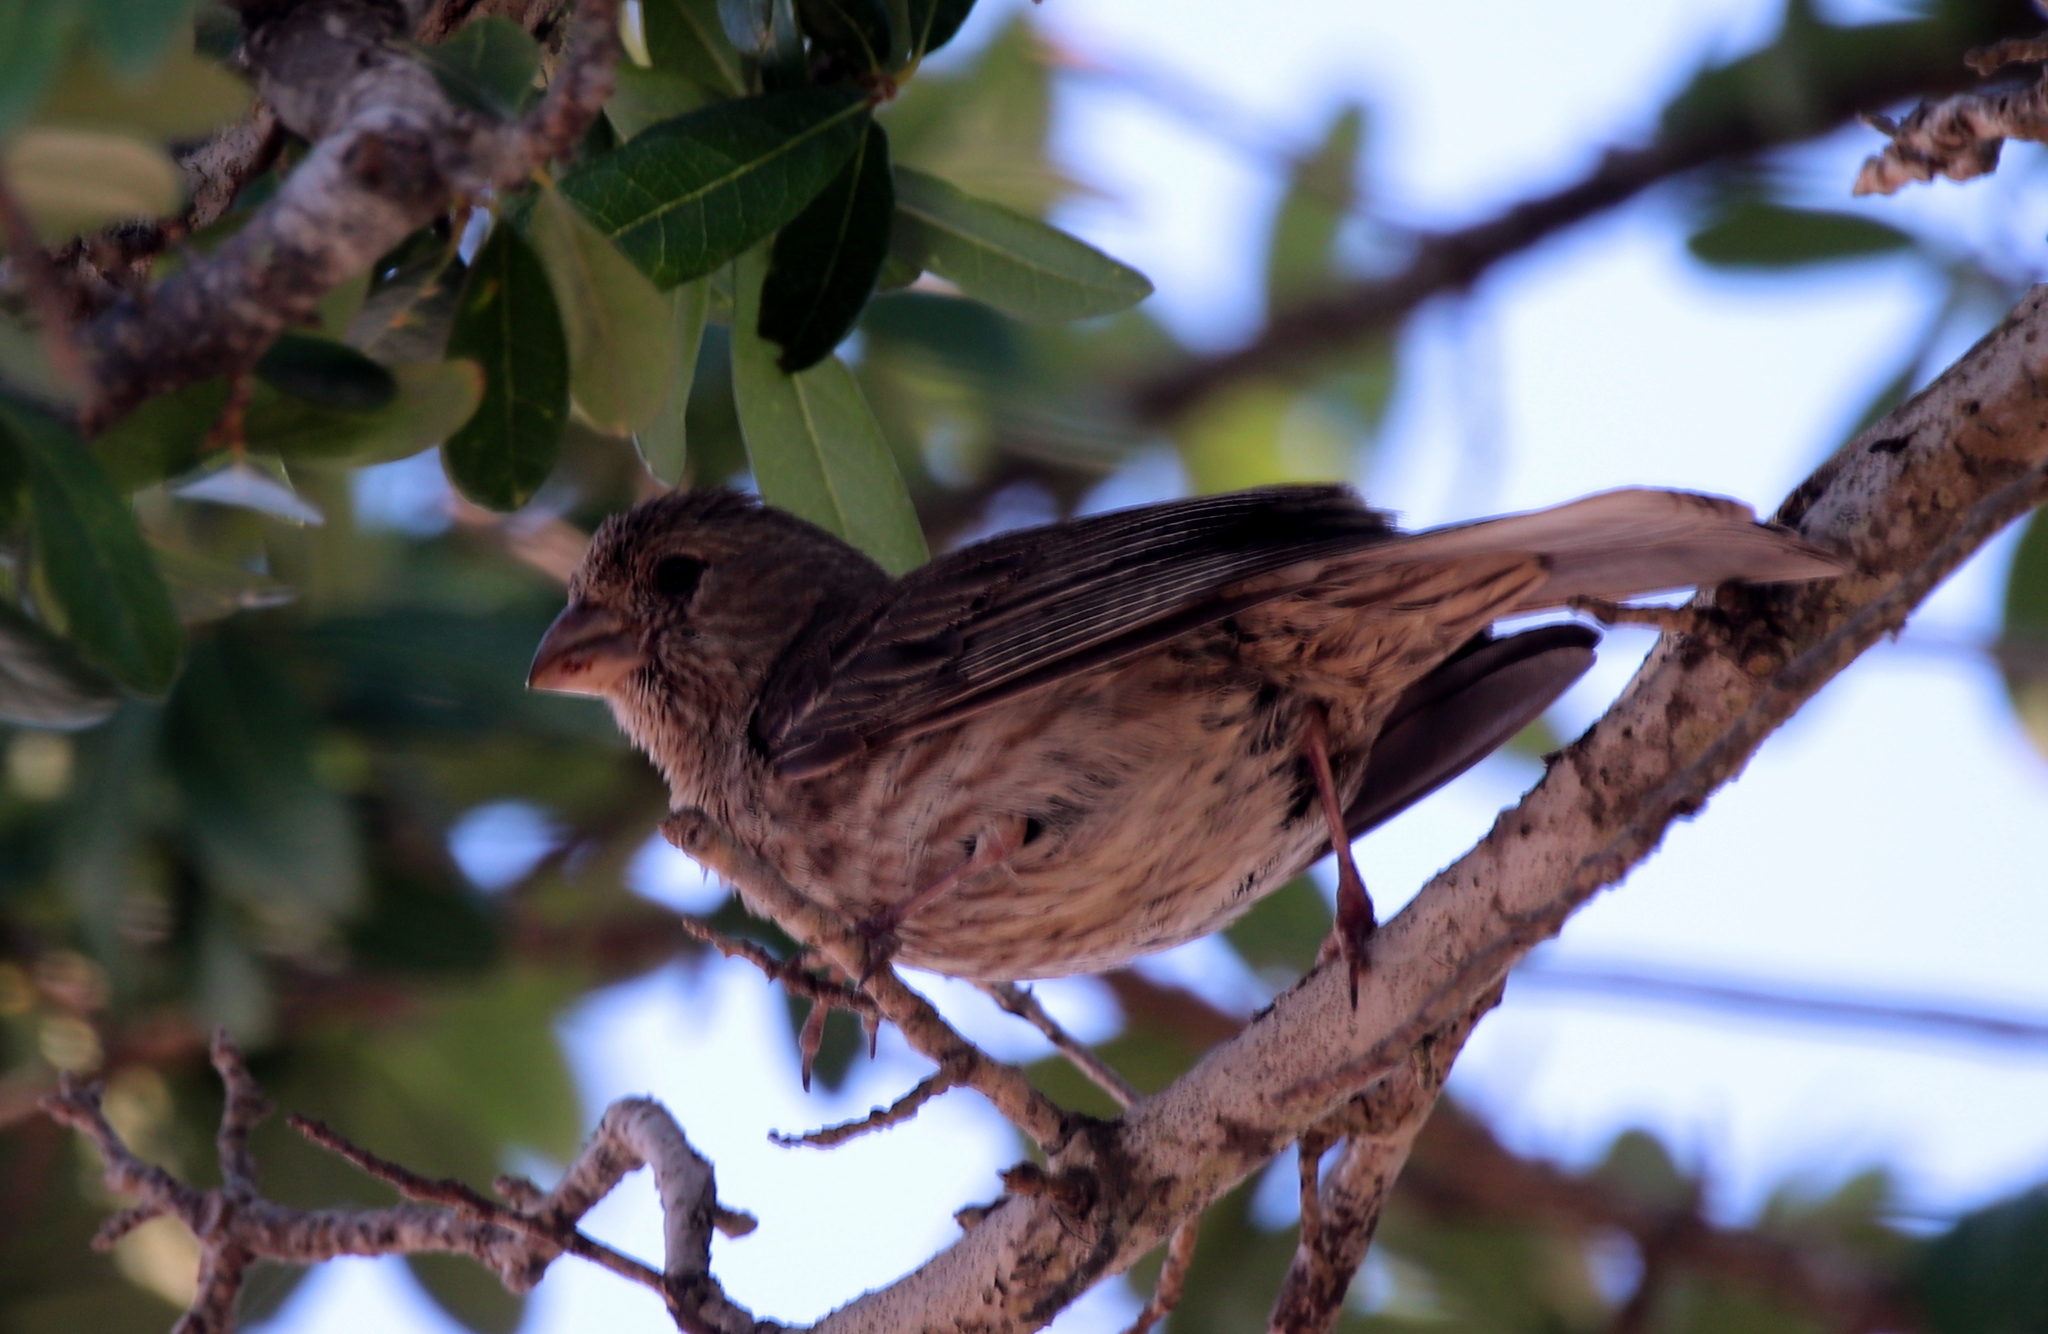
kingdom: Animalia
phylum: Chordata
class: Aves
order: Passeriformes
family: Fringillidae
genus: Haemorhous
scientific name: Haemorhous mexicanus
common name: House finch
